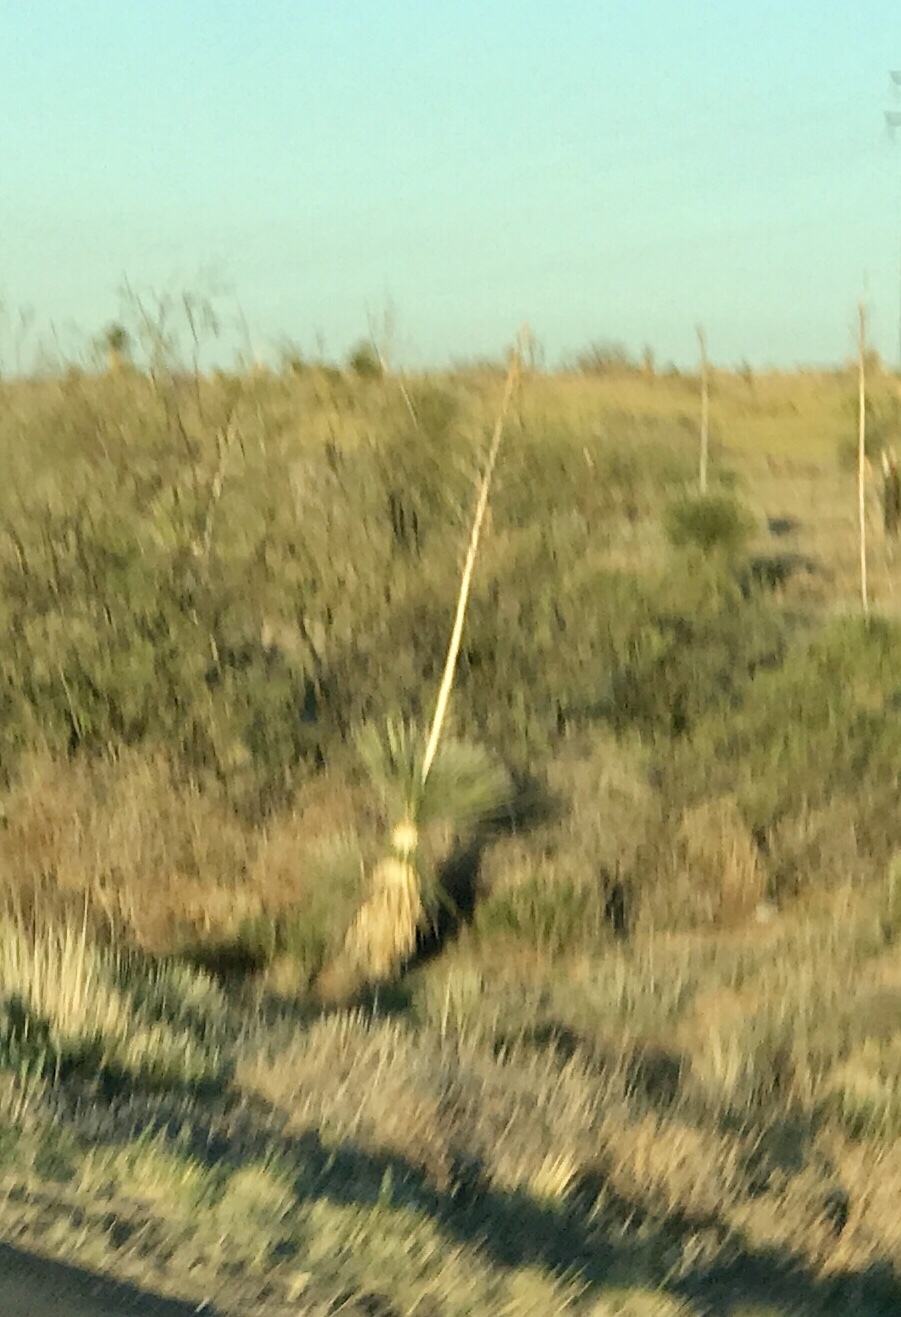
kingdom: Plantae
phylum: Tracheophyta
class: Liliopsida
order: Asparagales
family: Asparagaceae
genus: Yucca
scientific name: Yucca elata
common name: Palmella
